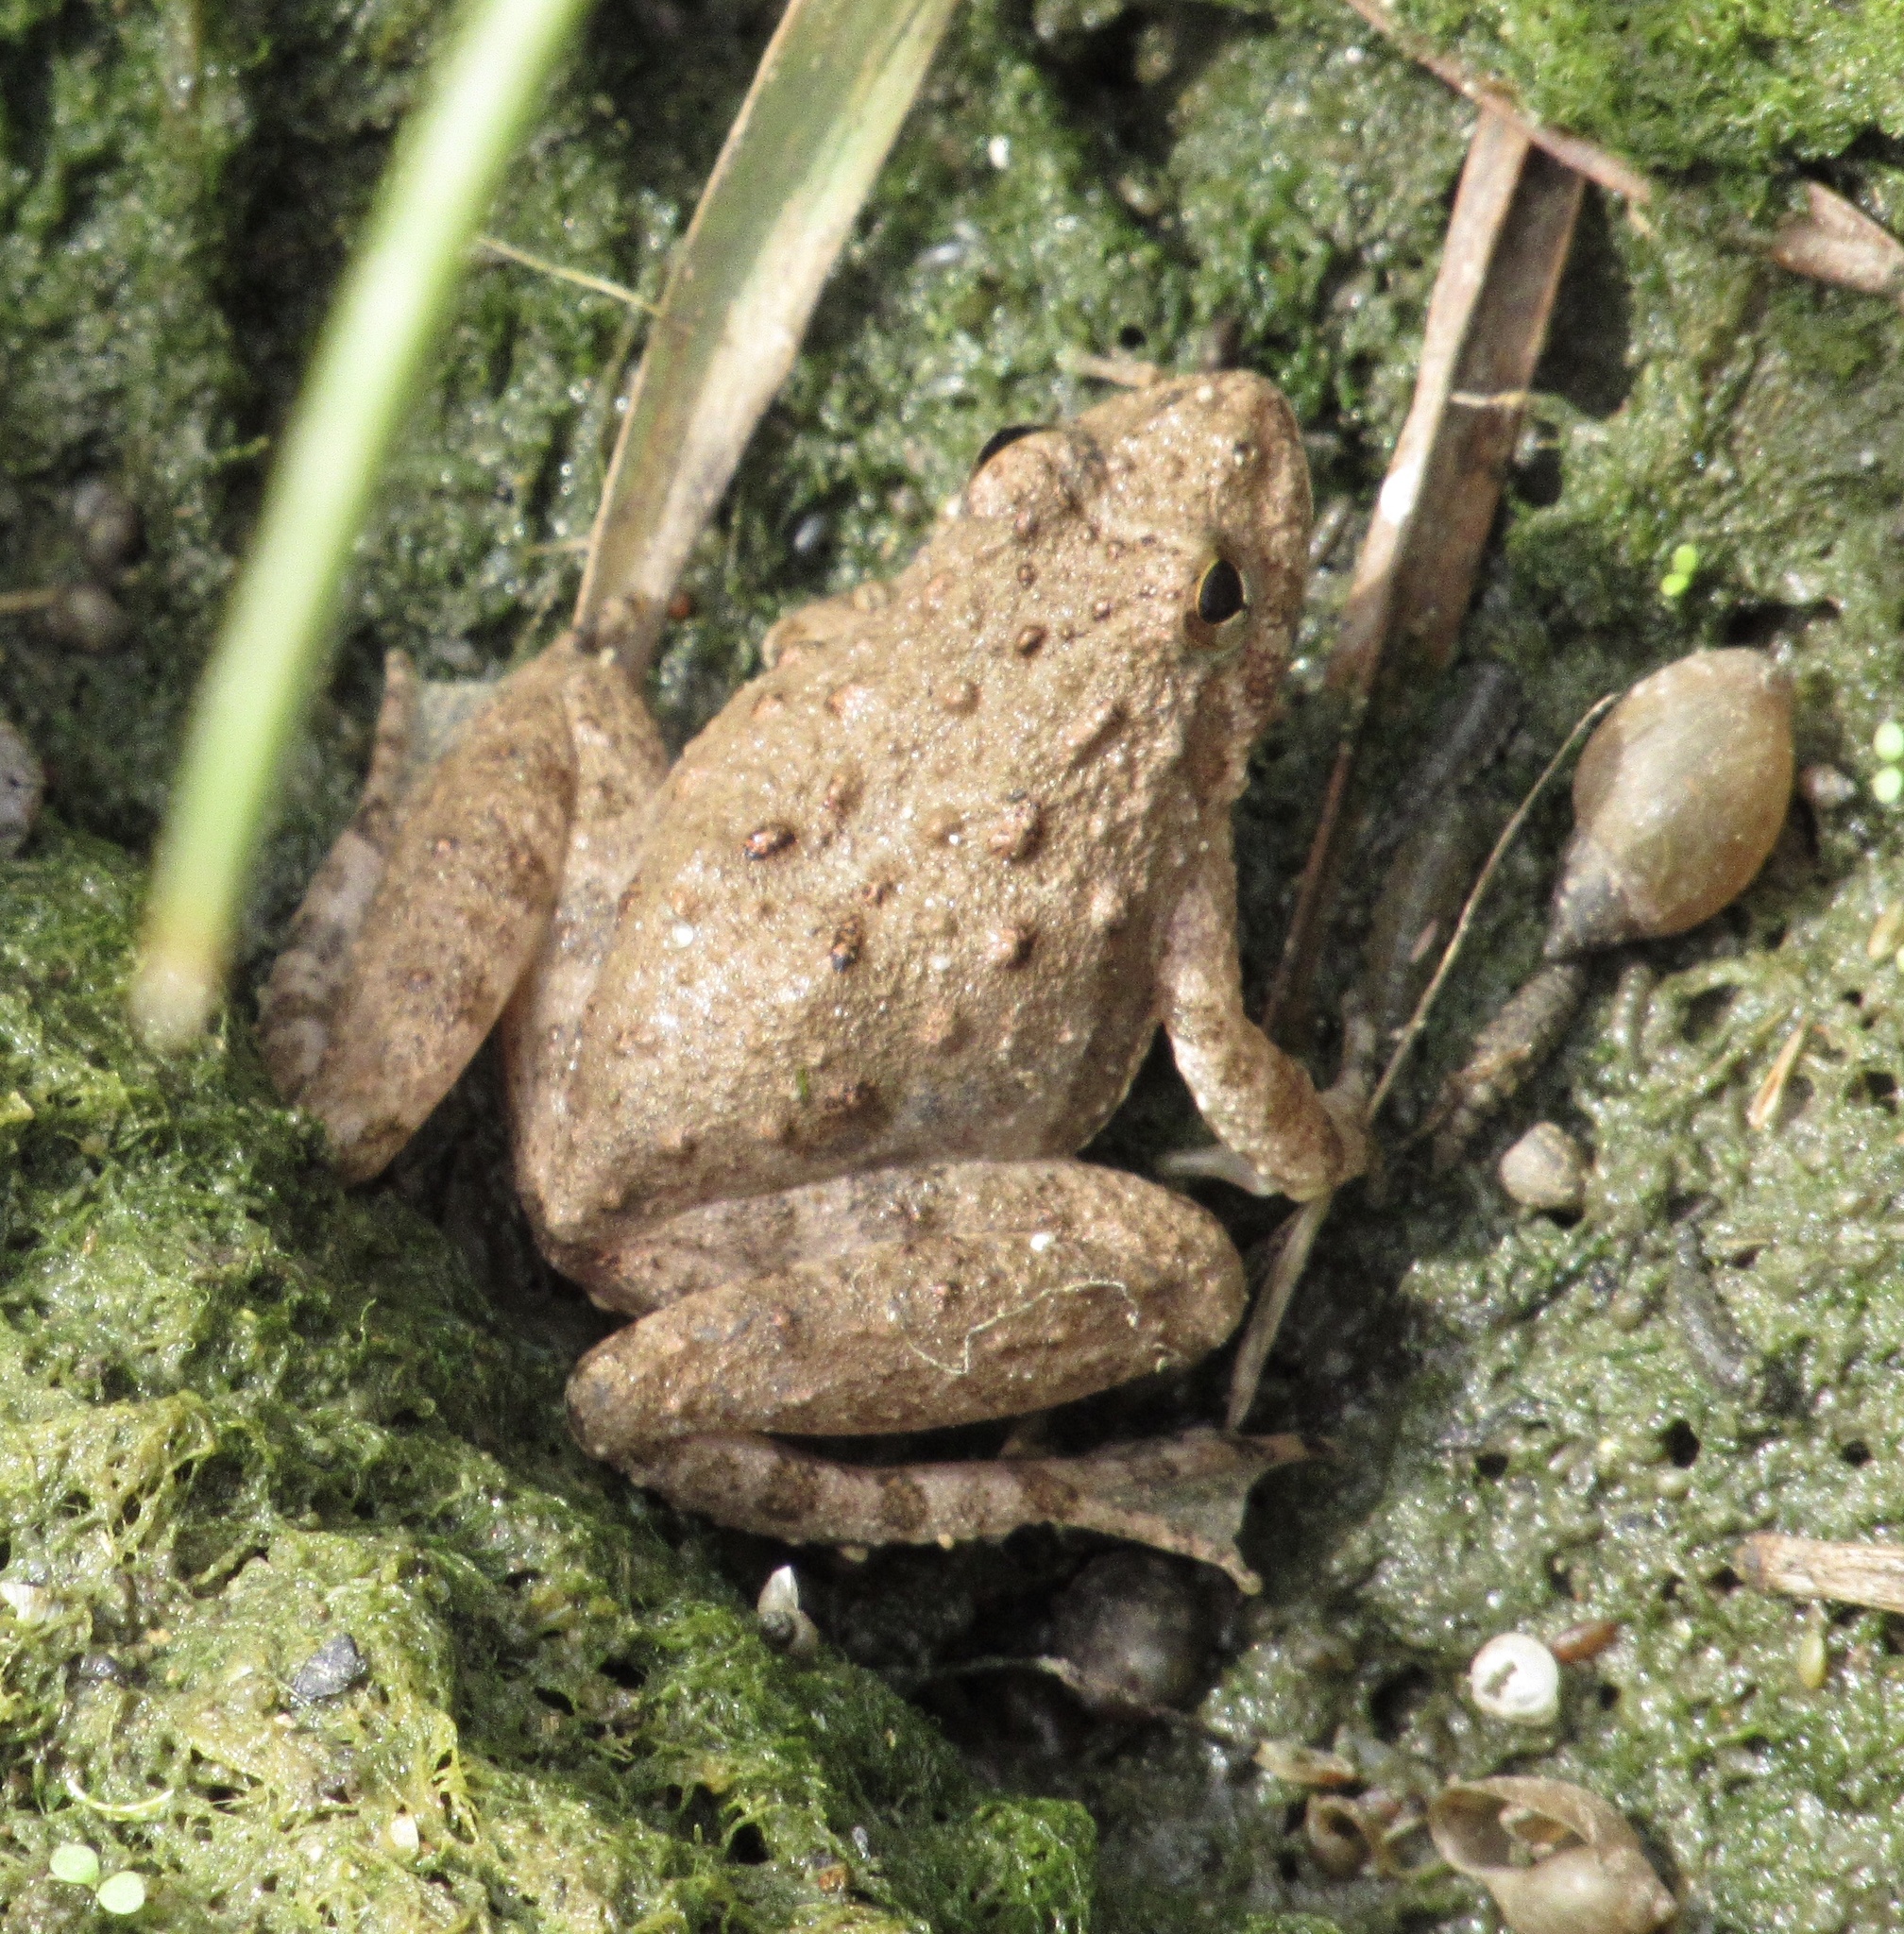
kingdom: Animalia
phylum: Chordata
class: Amphibia
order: Anura
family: Hylidae
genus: Acris
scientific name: Acris blanchardi
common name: Blanchard's cricket frog
